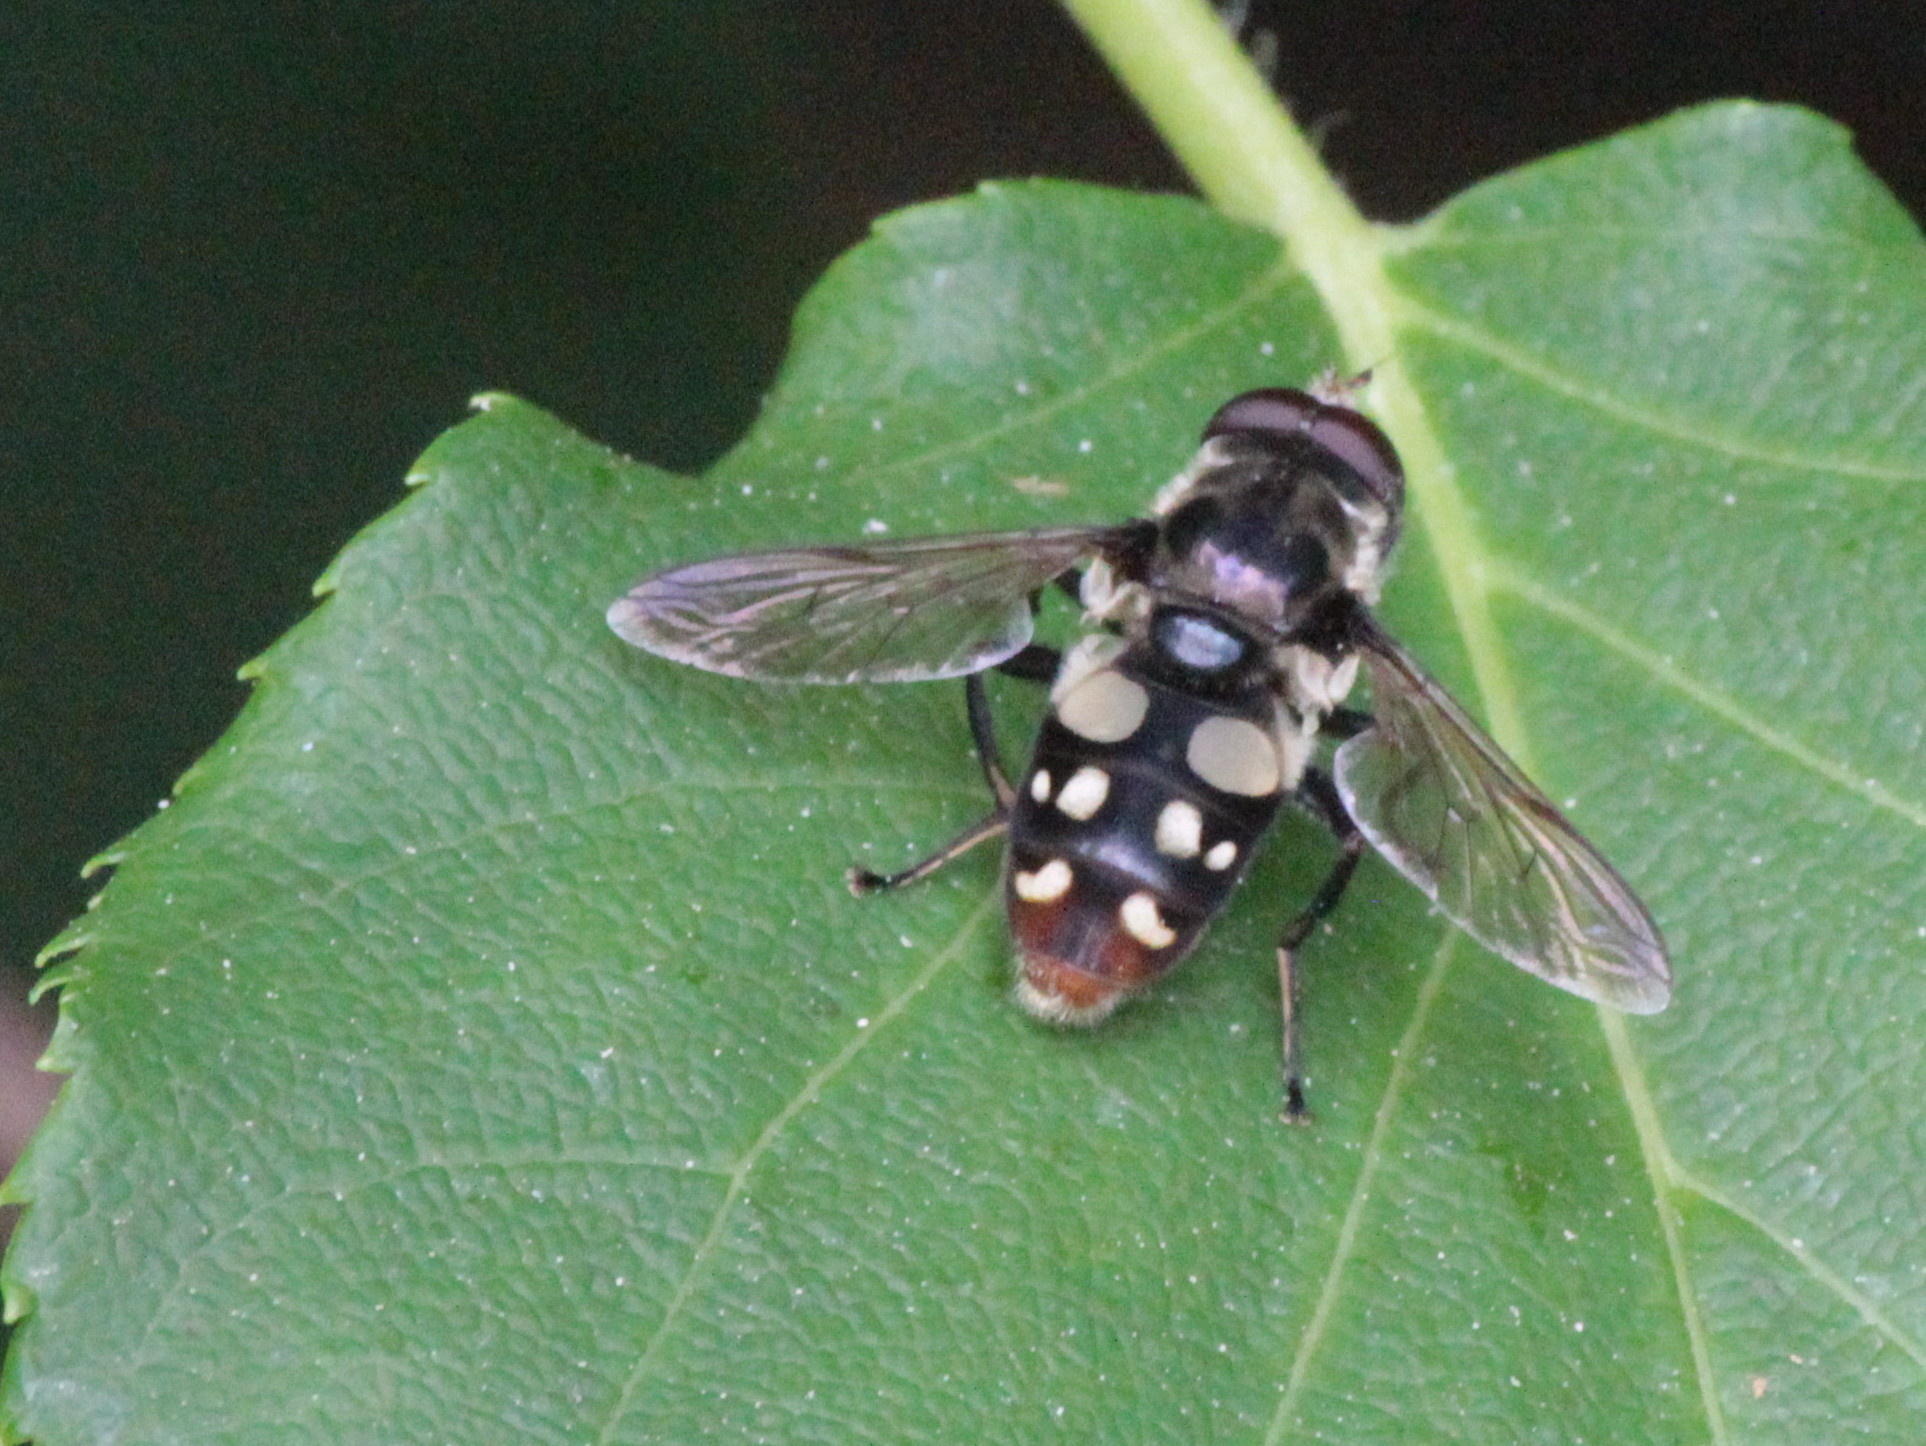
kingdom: Animalia
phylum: Arthropoda
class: Insecta
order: Diptera
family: Syrphidae
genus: Sericomyia
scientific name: Sericomyia lata
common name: White-spotted pond fly
